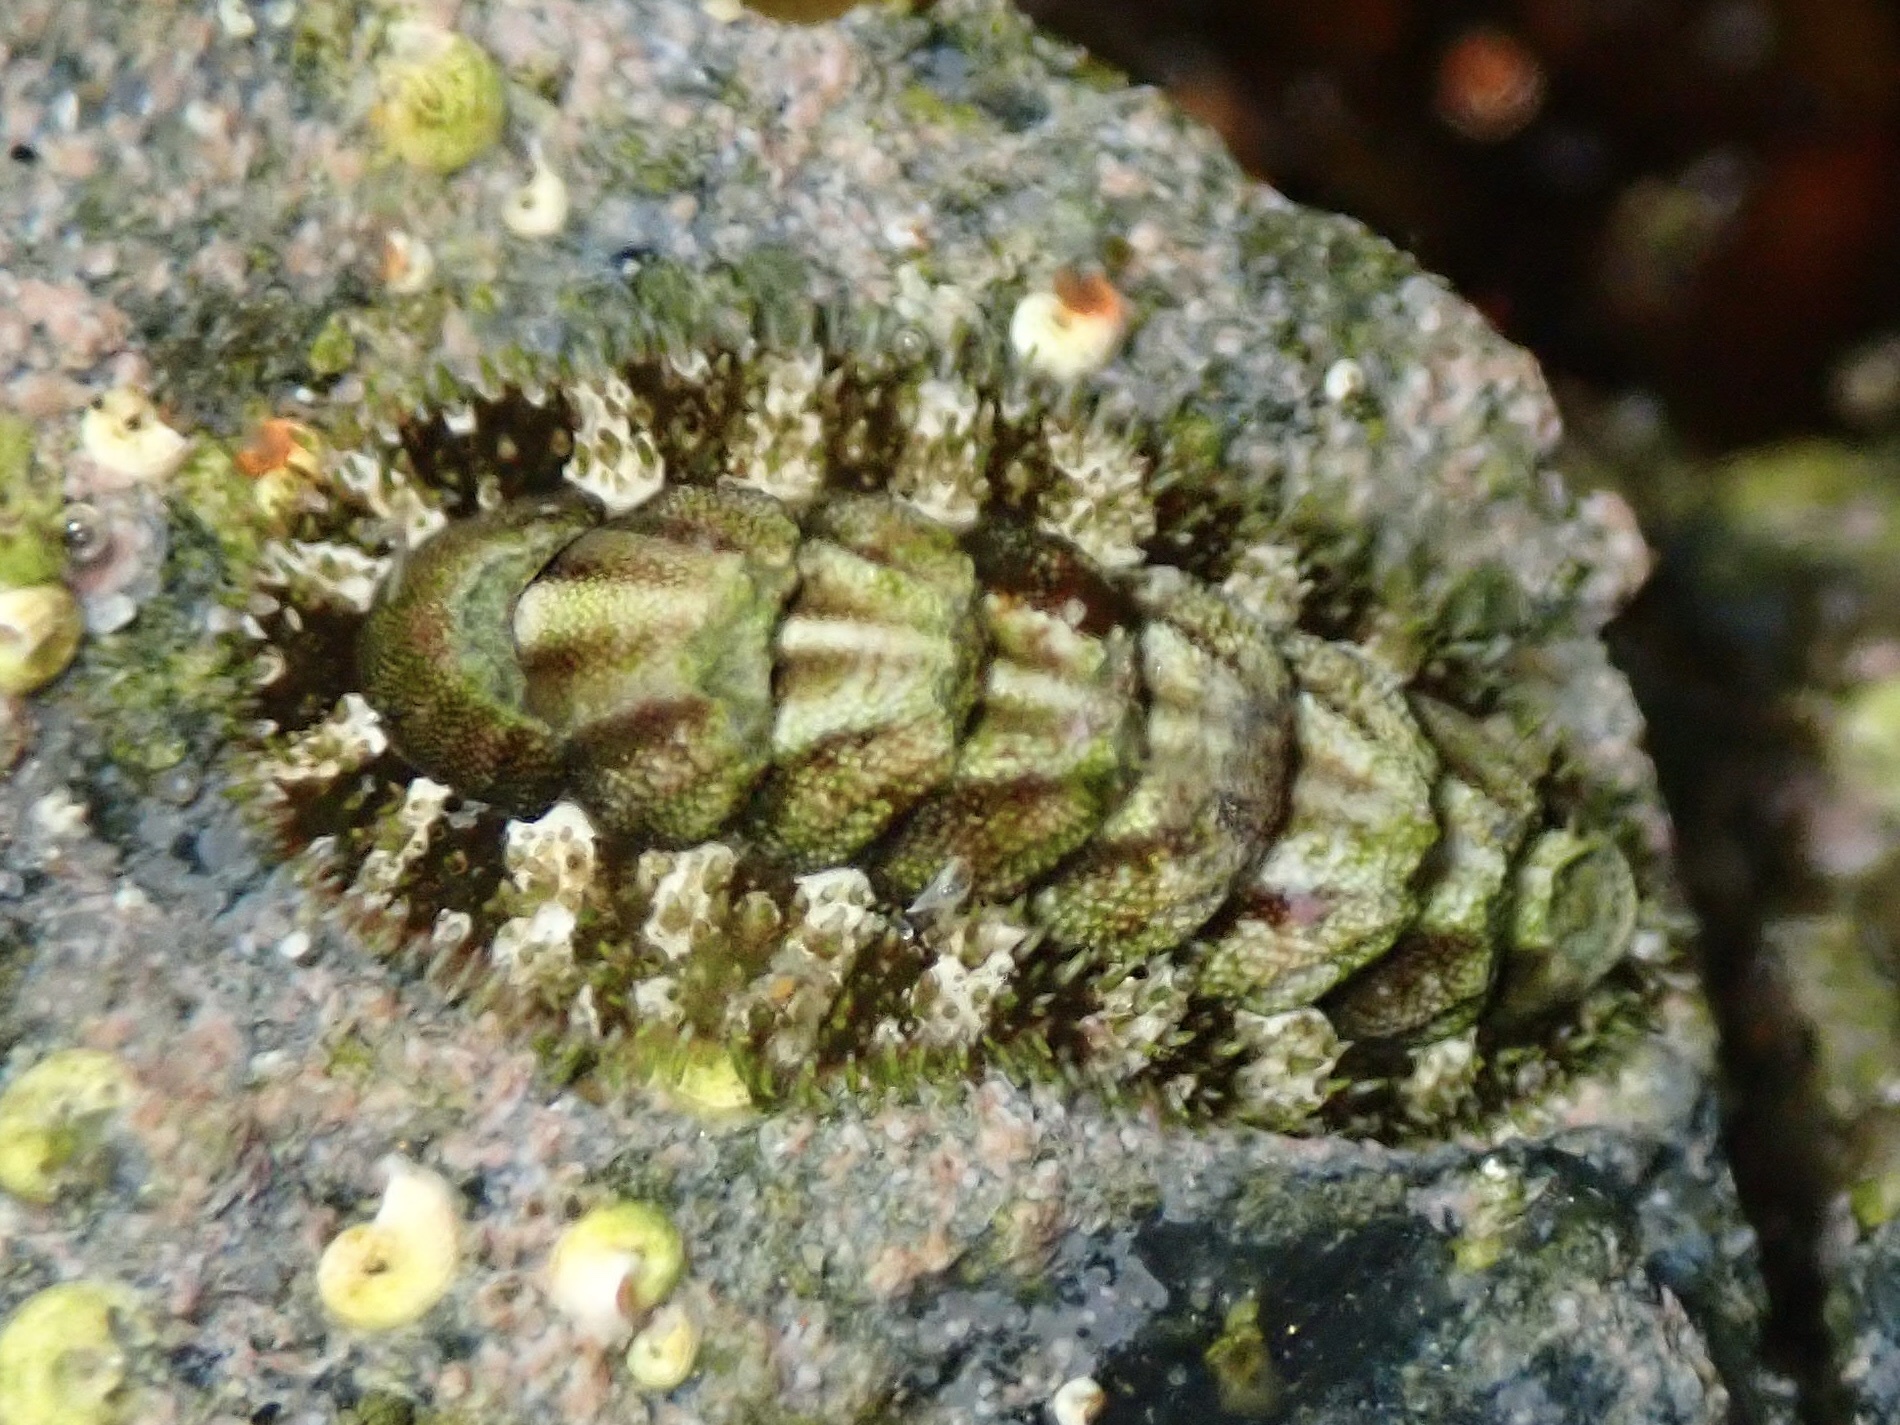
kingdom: Animalia
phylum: Mollusca
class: Polyplacophora
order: Chitonida
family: Tonicellidae
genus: Nuttallina
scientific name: Nuttallina californica
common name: California nuttall chiton
